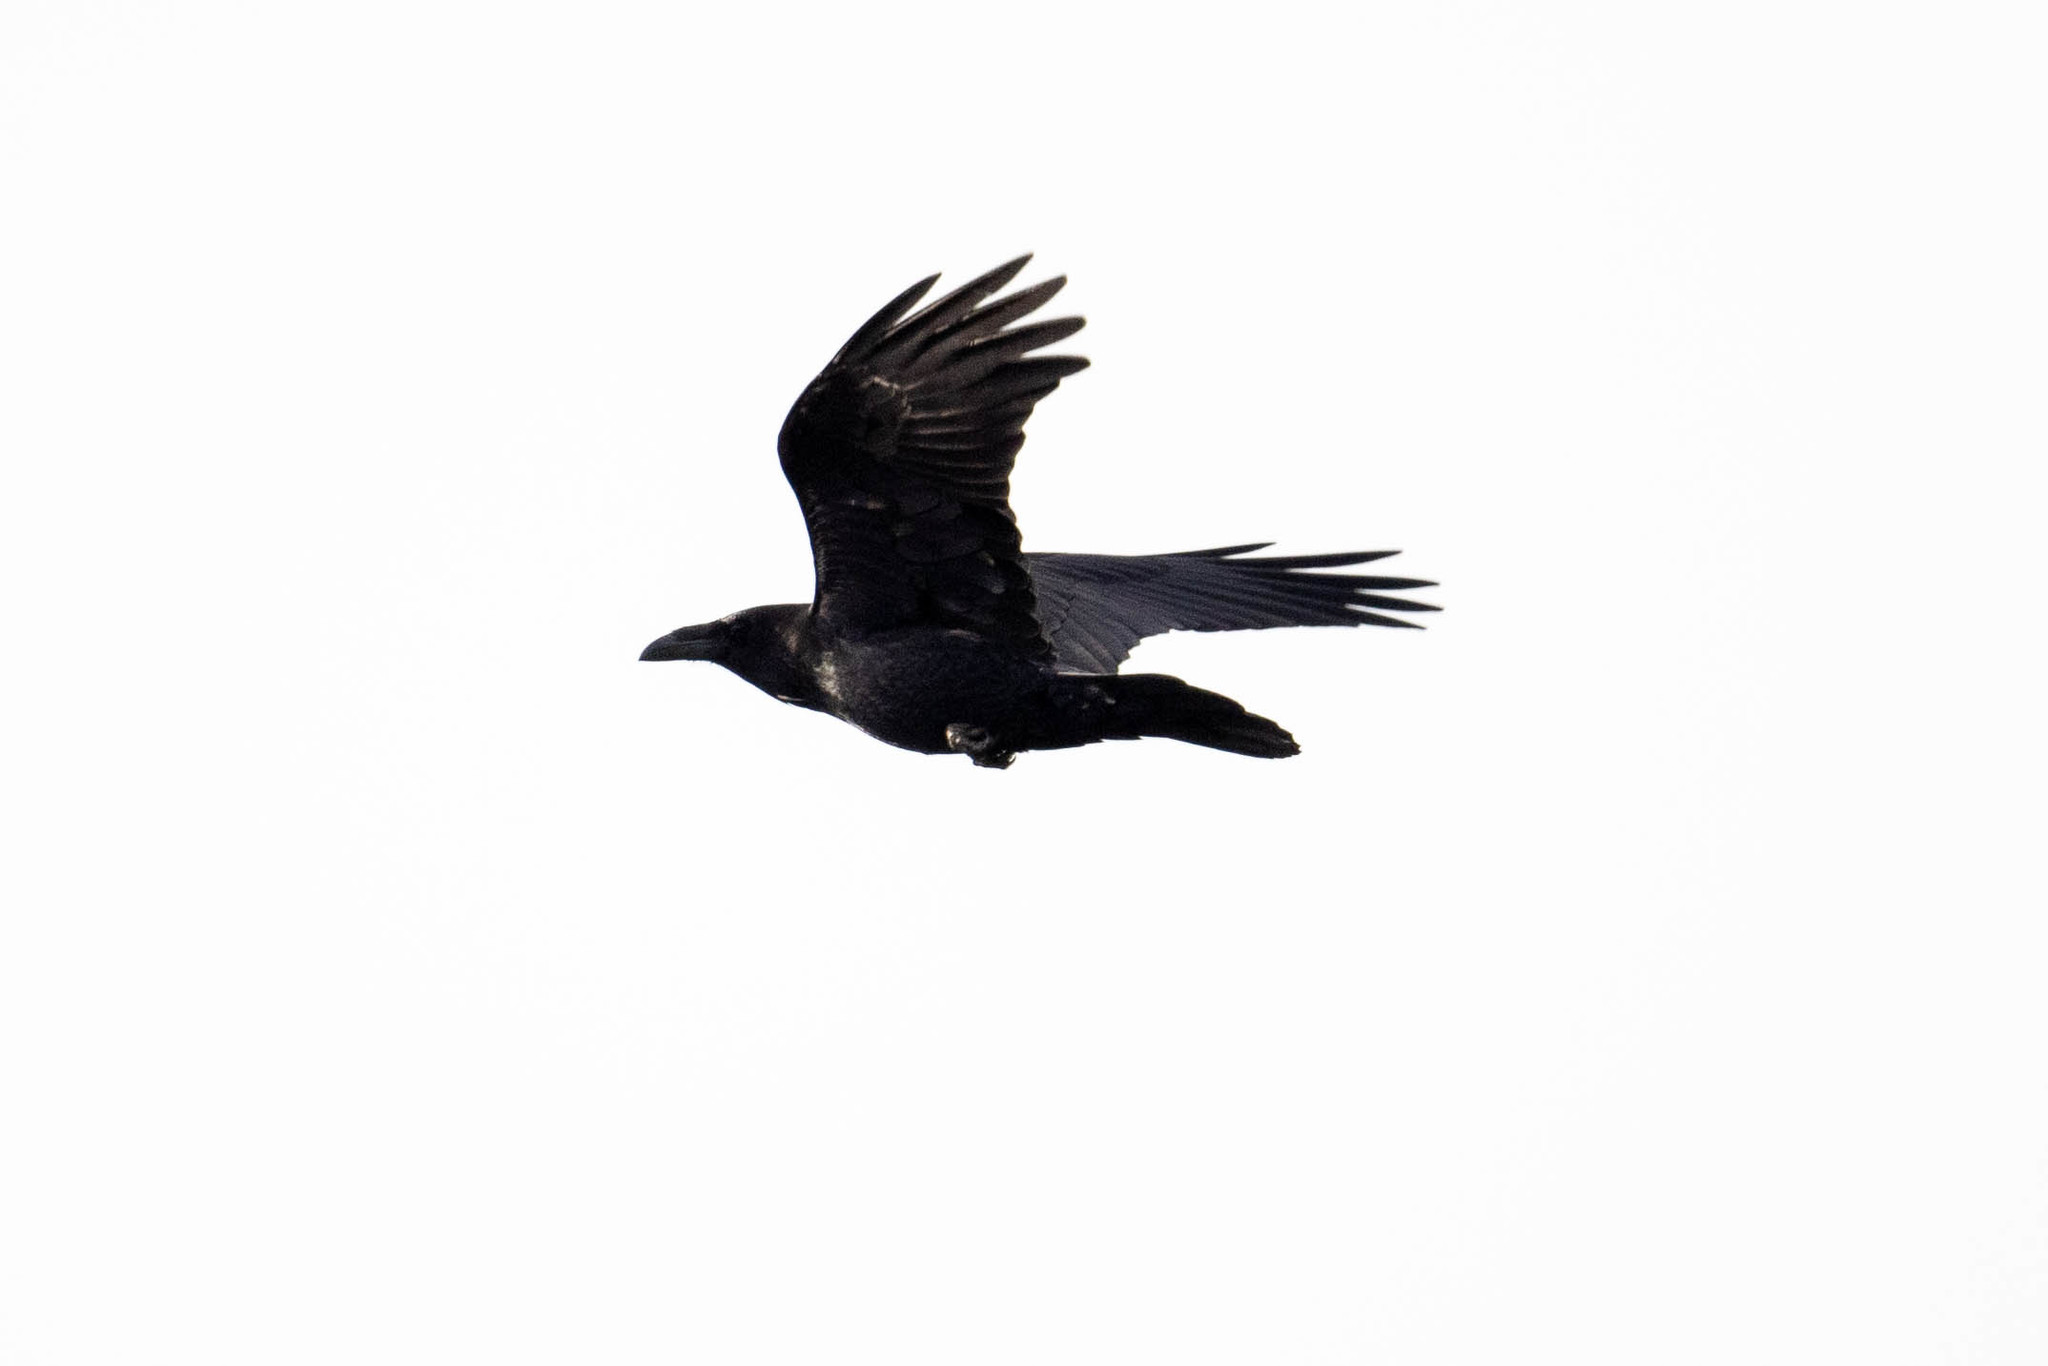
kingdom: Animalia
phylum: Chordata
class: Aves
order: Passeriformes
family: Corvidae
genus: Corvus
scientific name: Corvus corax
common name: Common raven
